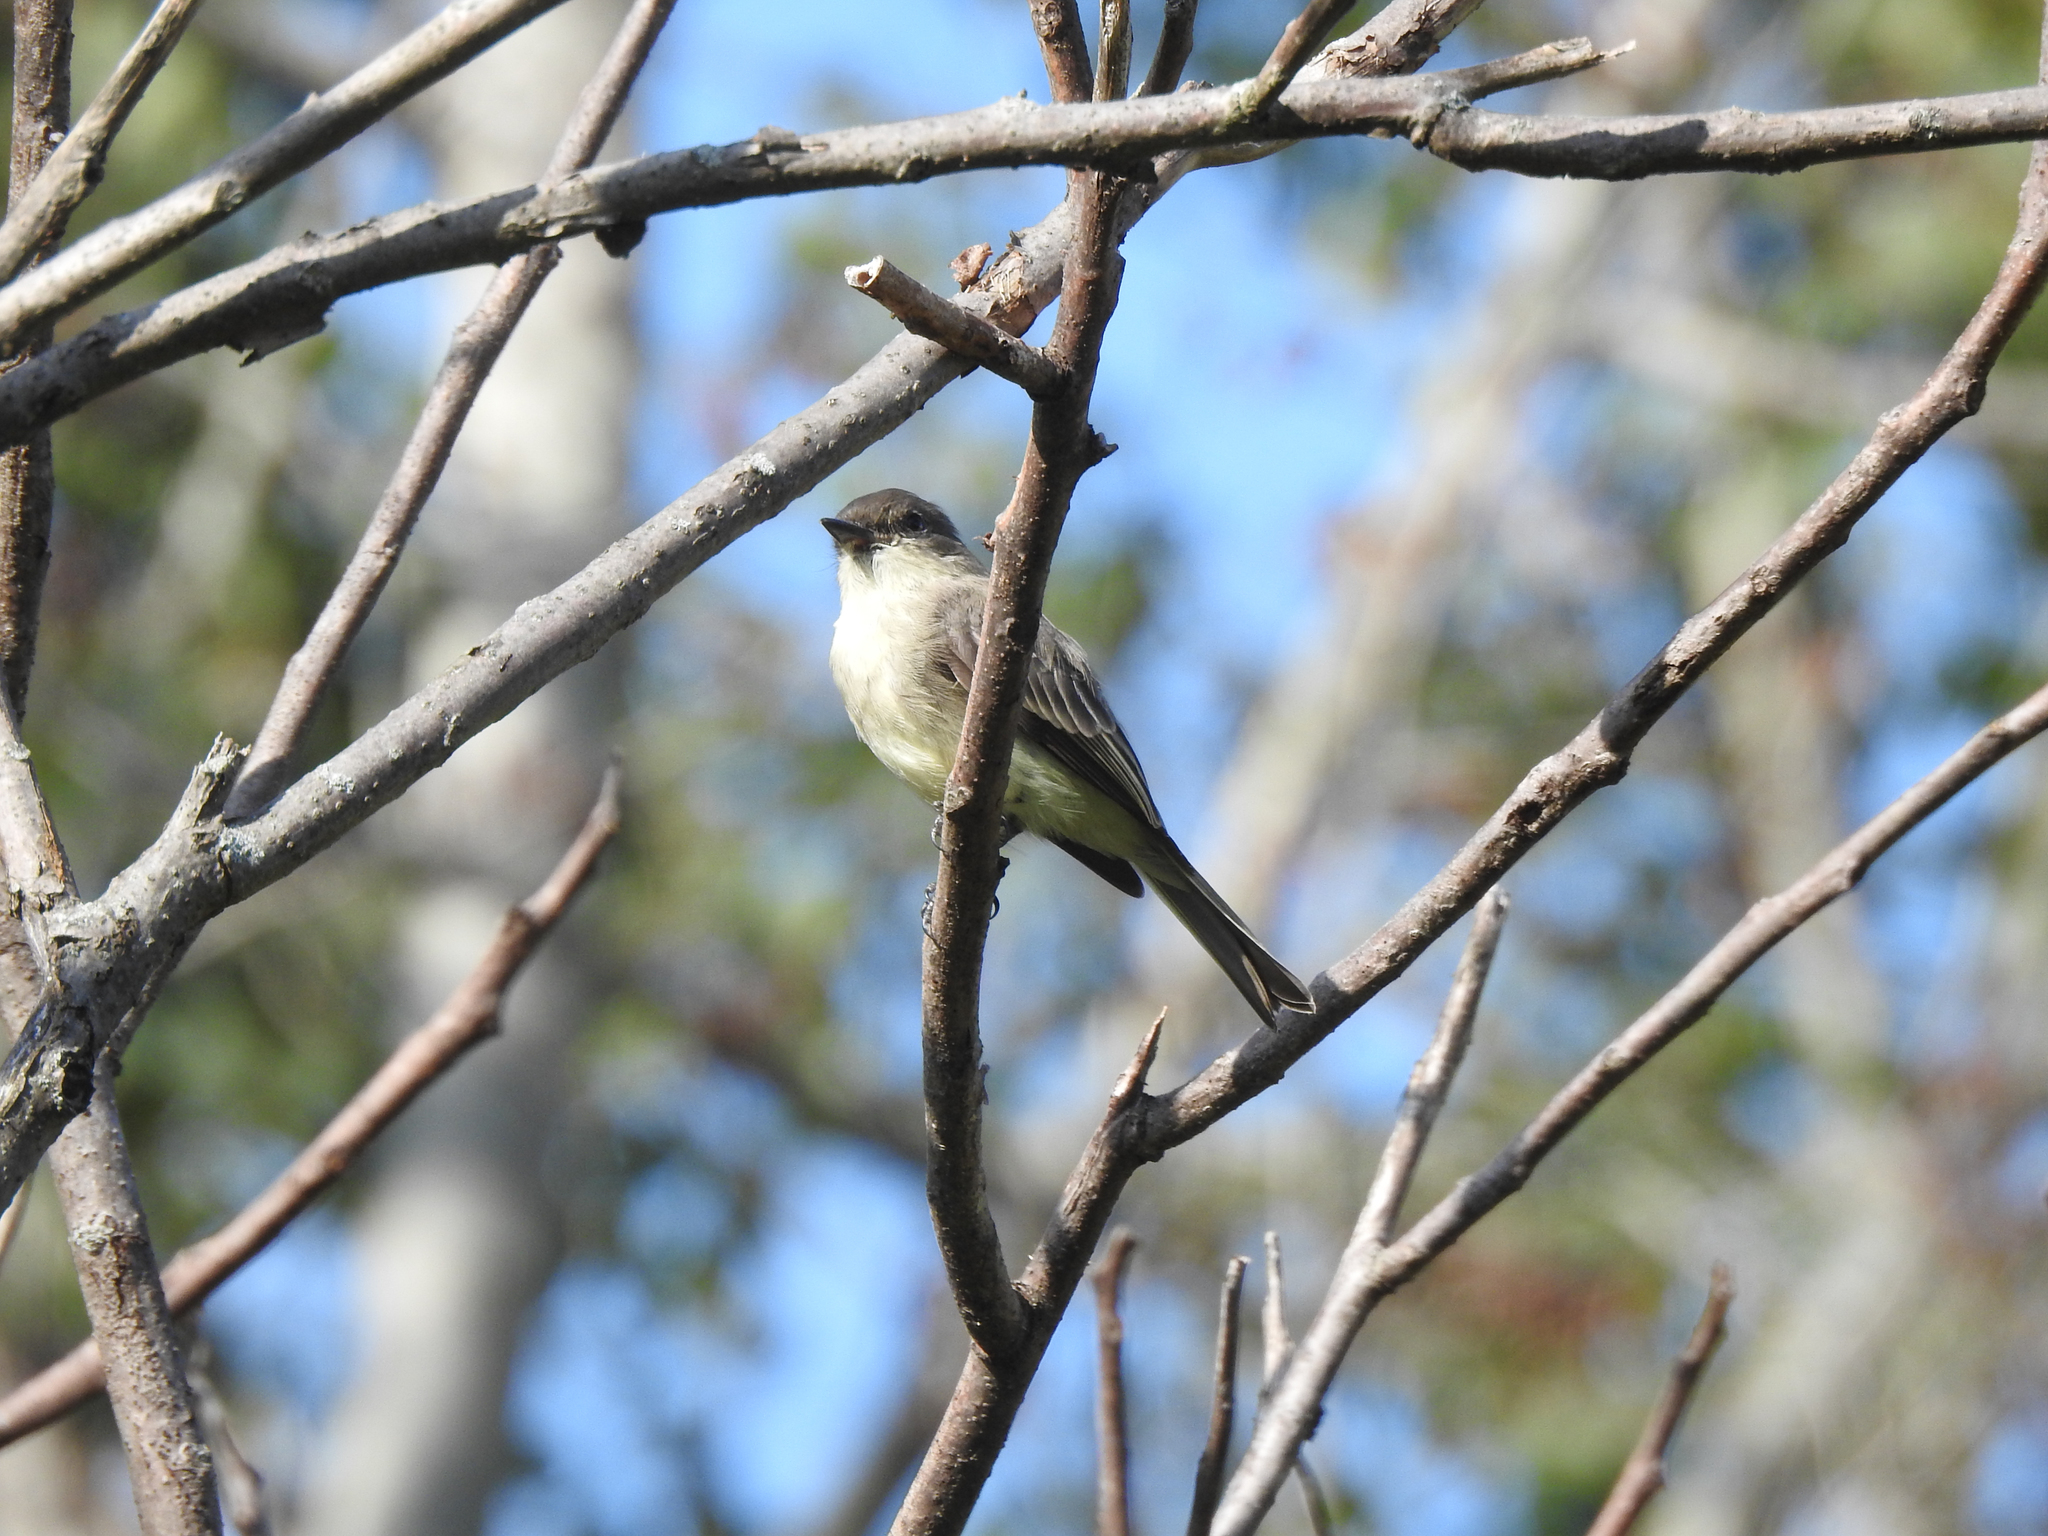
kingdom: Animalia
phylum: Chordata
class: Aves
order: Passeriformes
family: Tyrannidae
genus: Sayornis
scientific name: Sayornis phoebe
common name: Eastern phoebe
